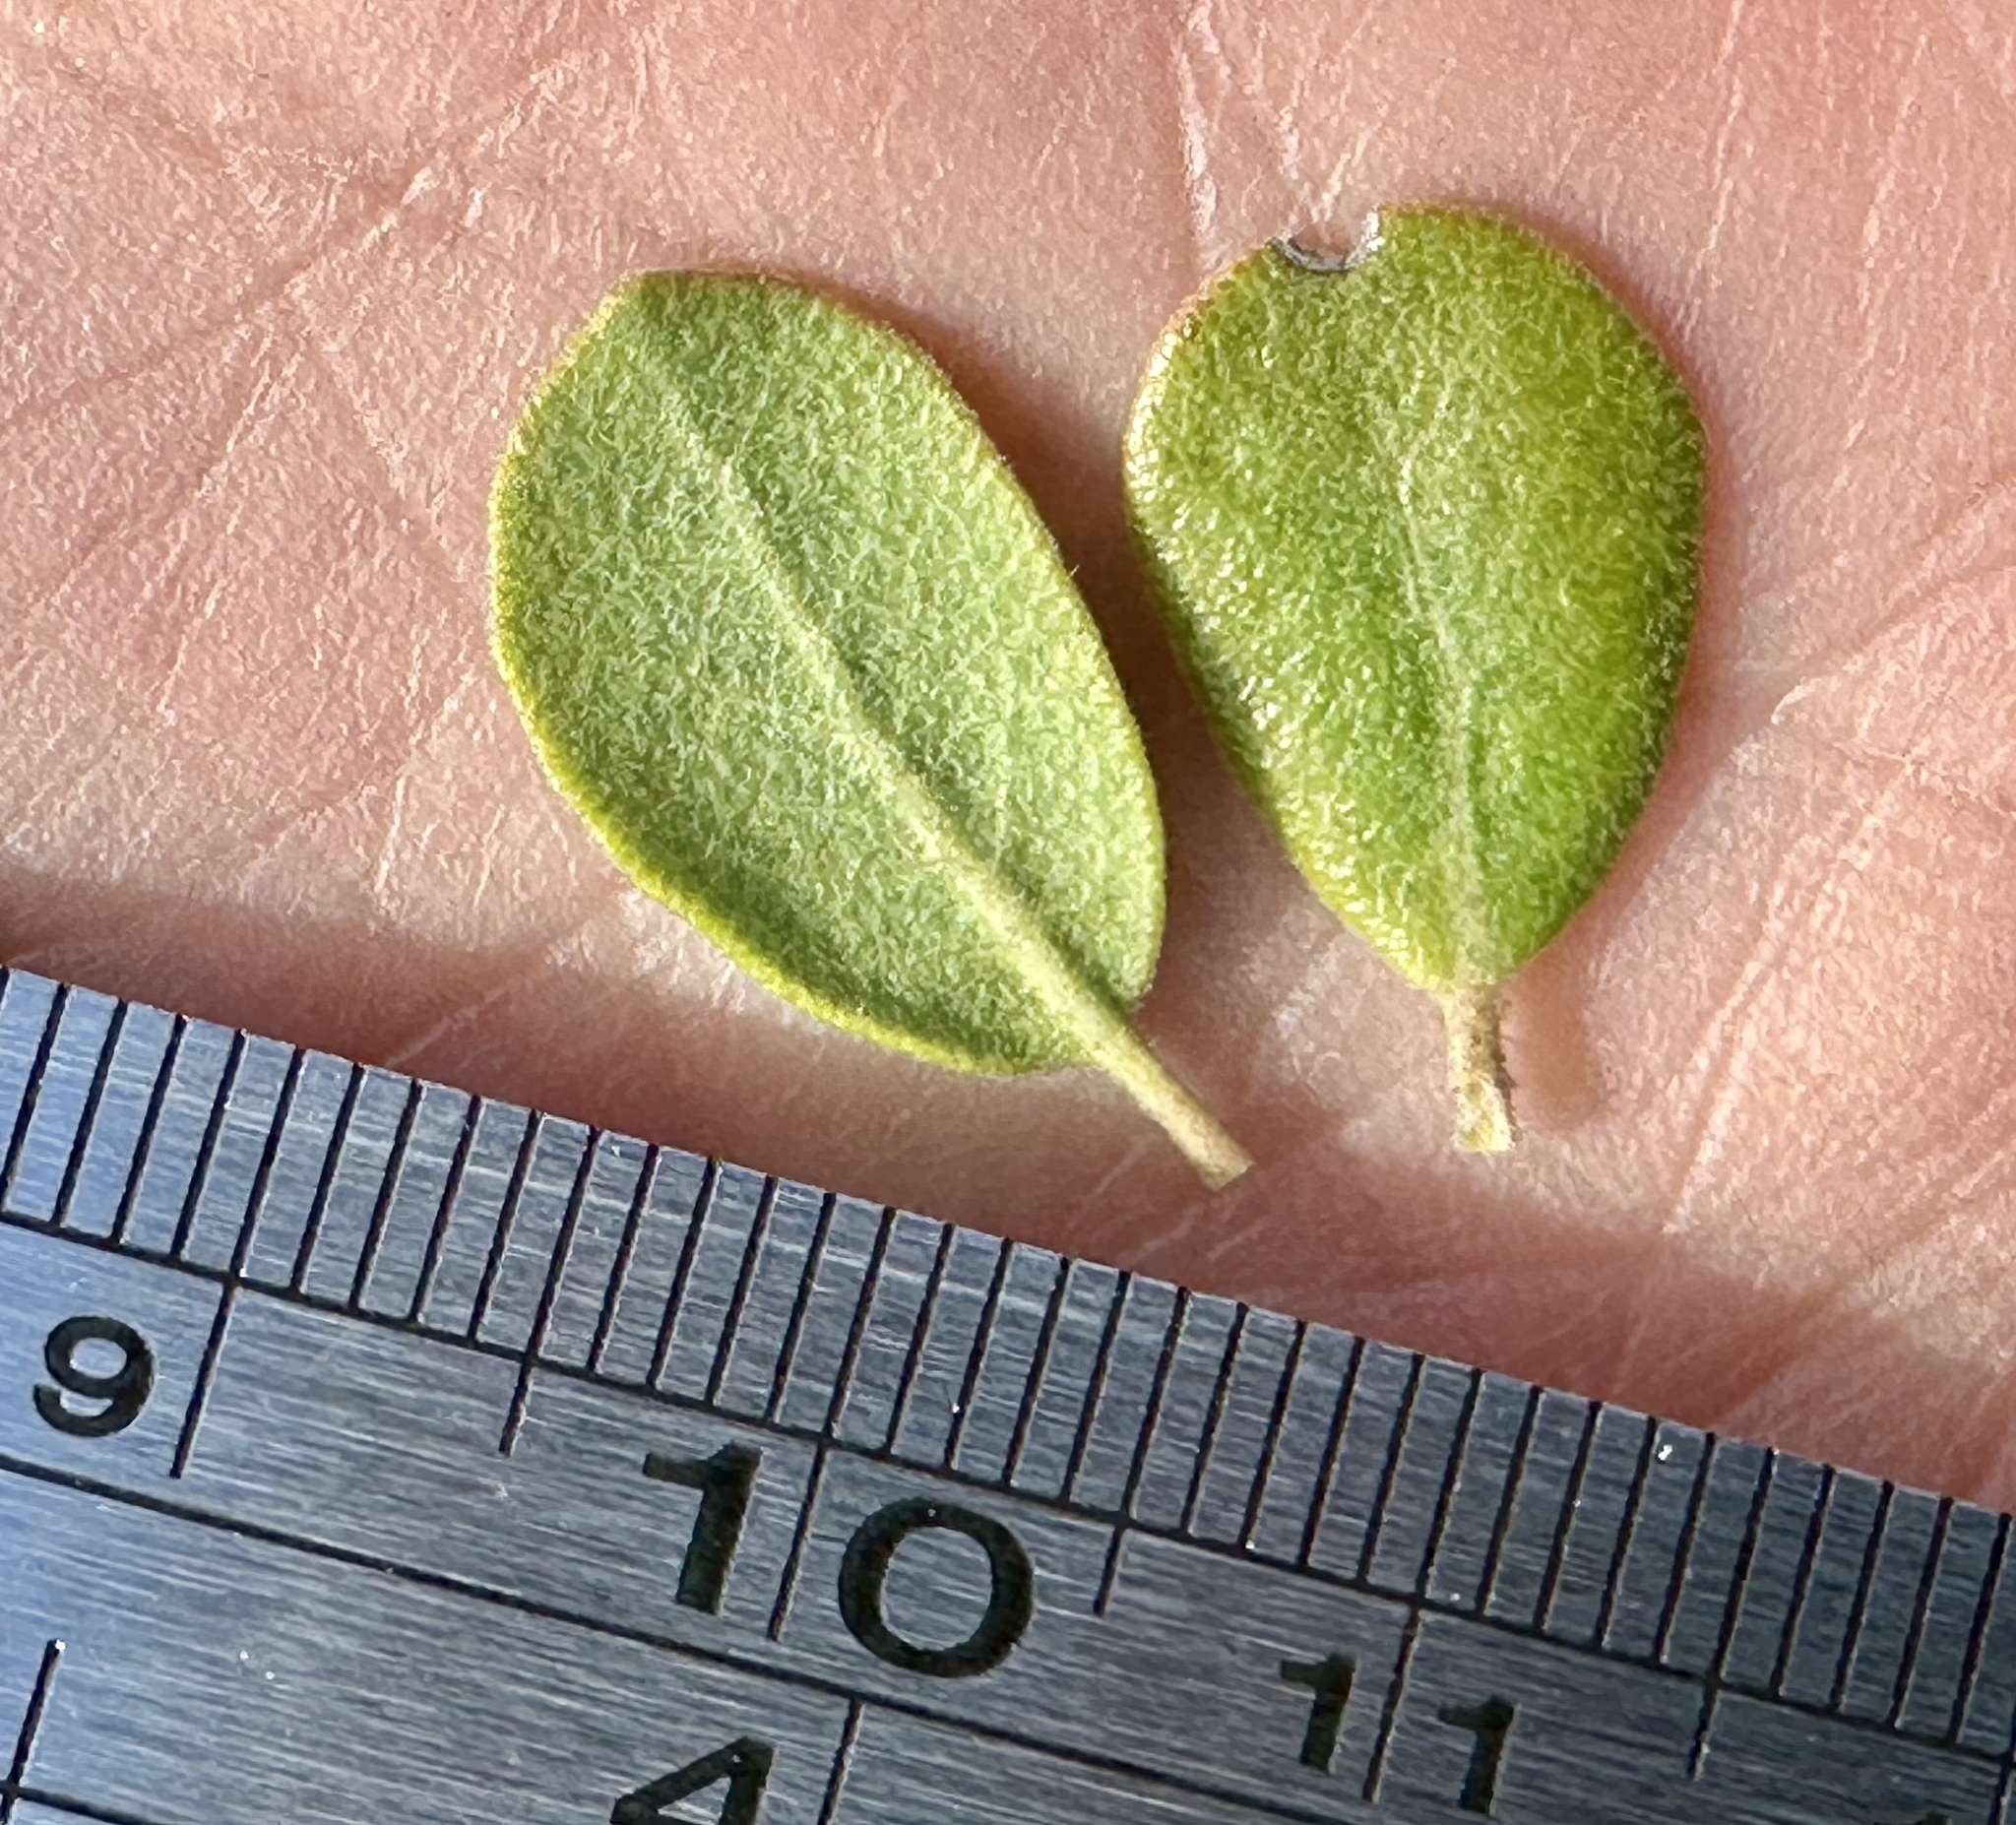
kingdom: Plantae
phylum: Tracheophyta
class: Magnoliopsida
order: Ericales
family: Ericaceae
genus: Arctostaphylos
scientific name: Arctostaphylos pumila
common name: Sandmat manzanita
